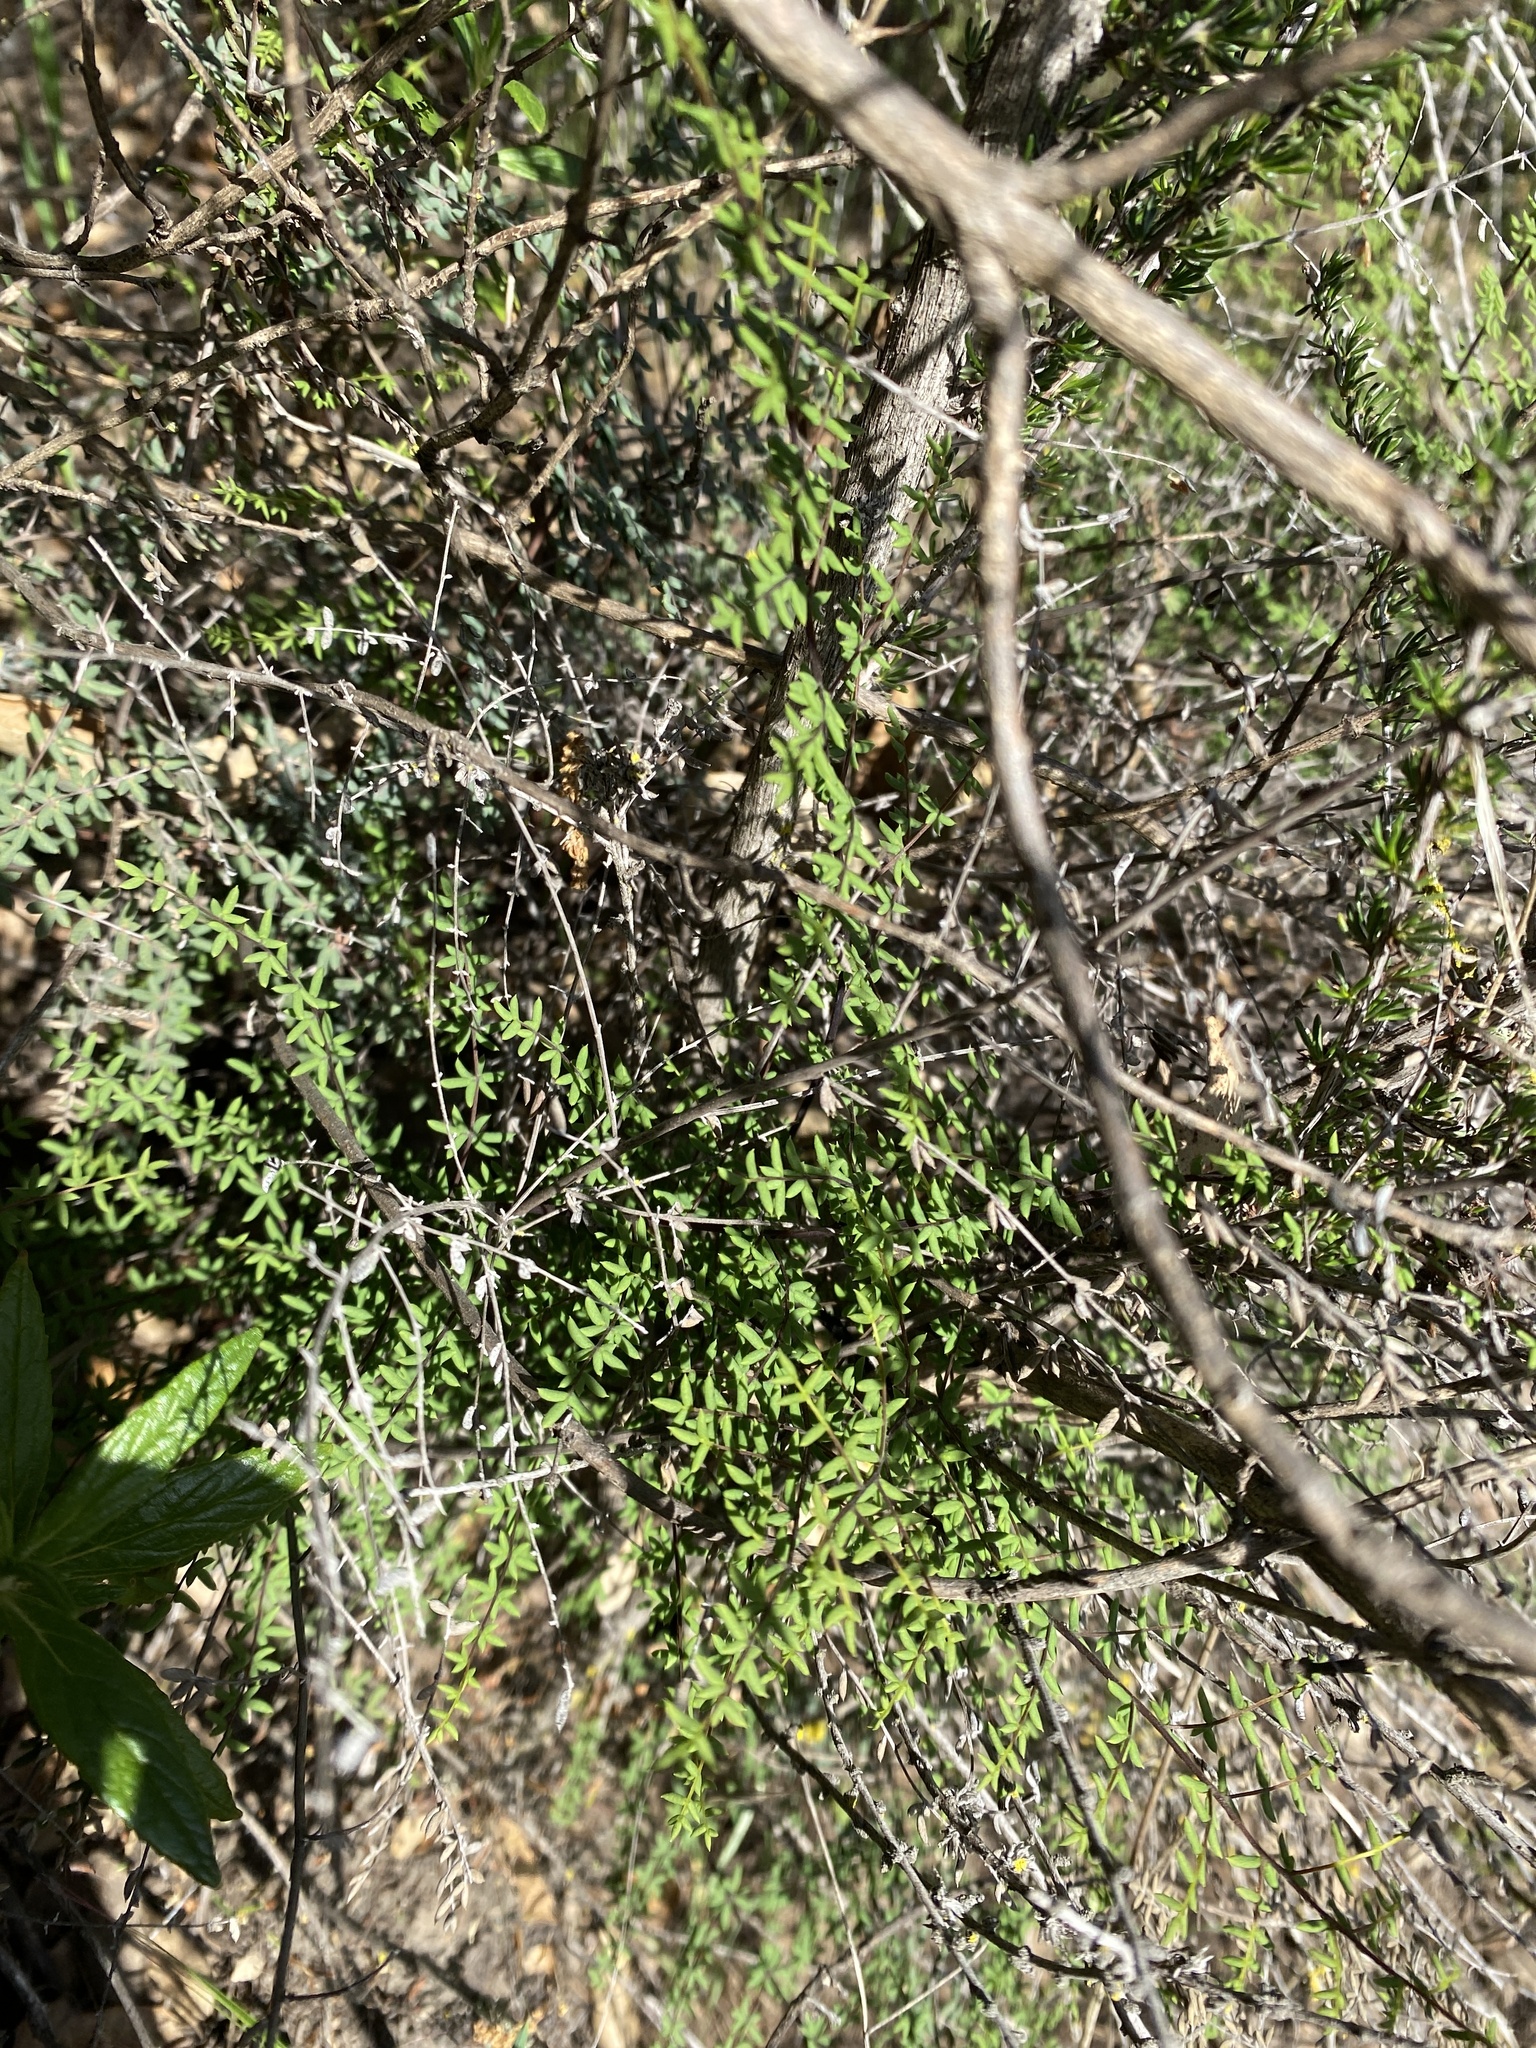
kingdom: Plantae
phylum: Tracheophyta
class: Polypodiopsida
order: Polypodiales
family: Pteridaceae
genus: Pellaea
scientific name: Pellaea mucronata
